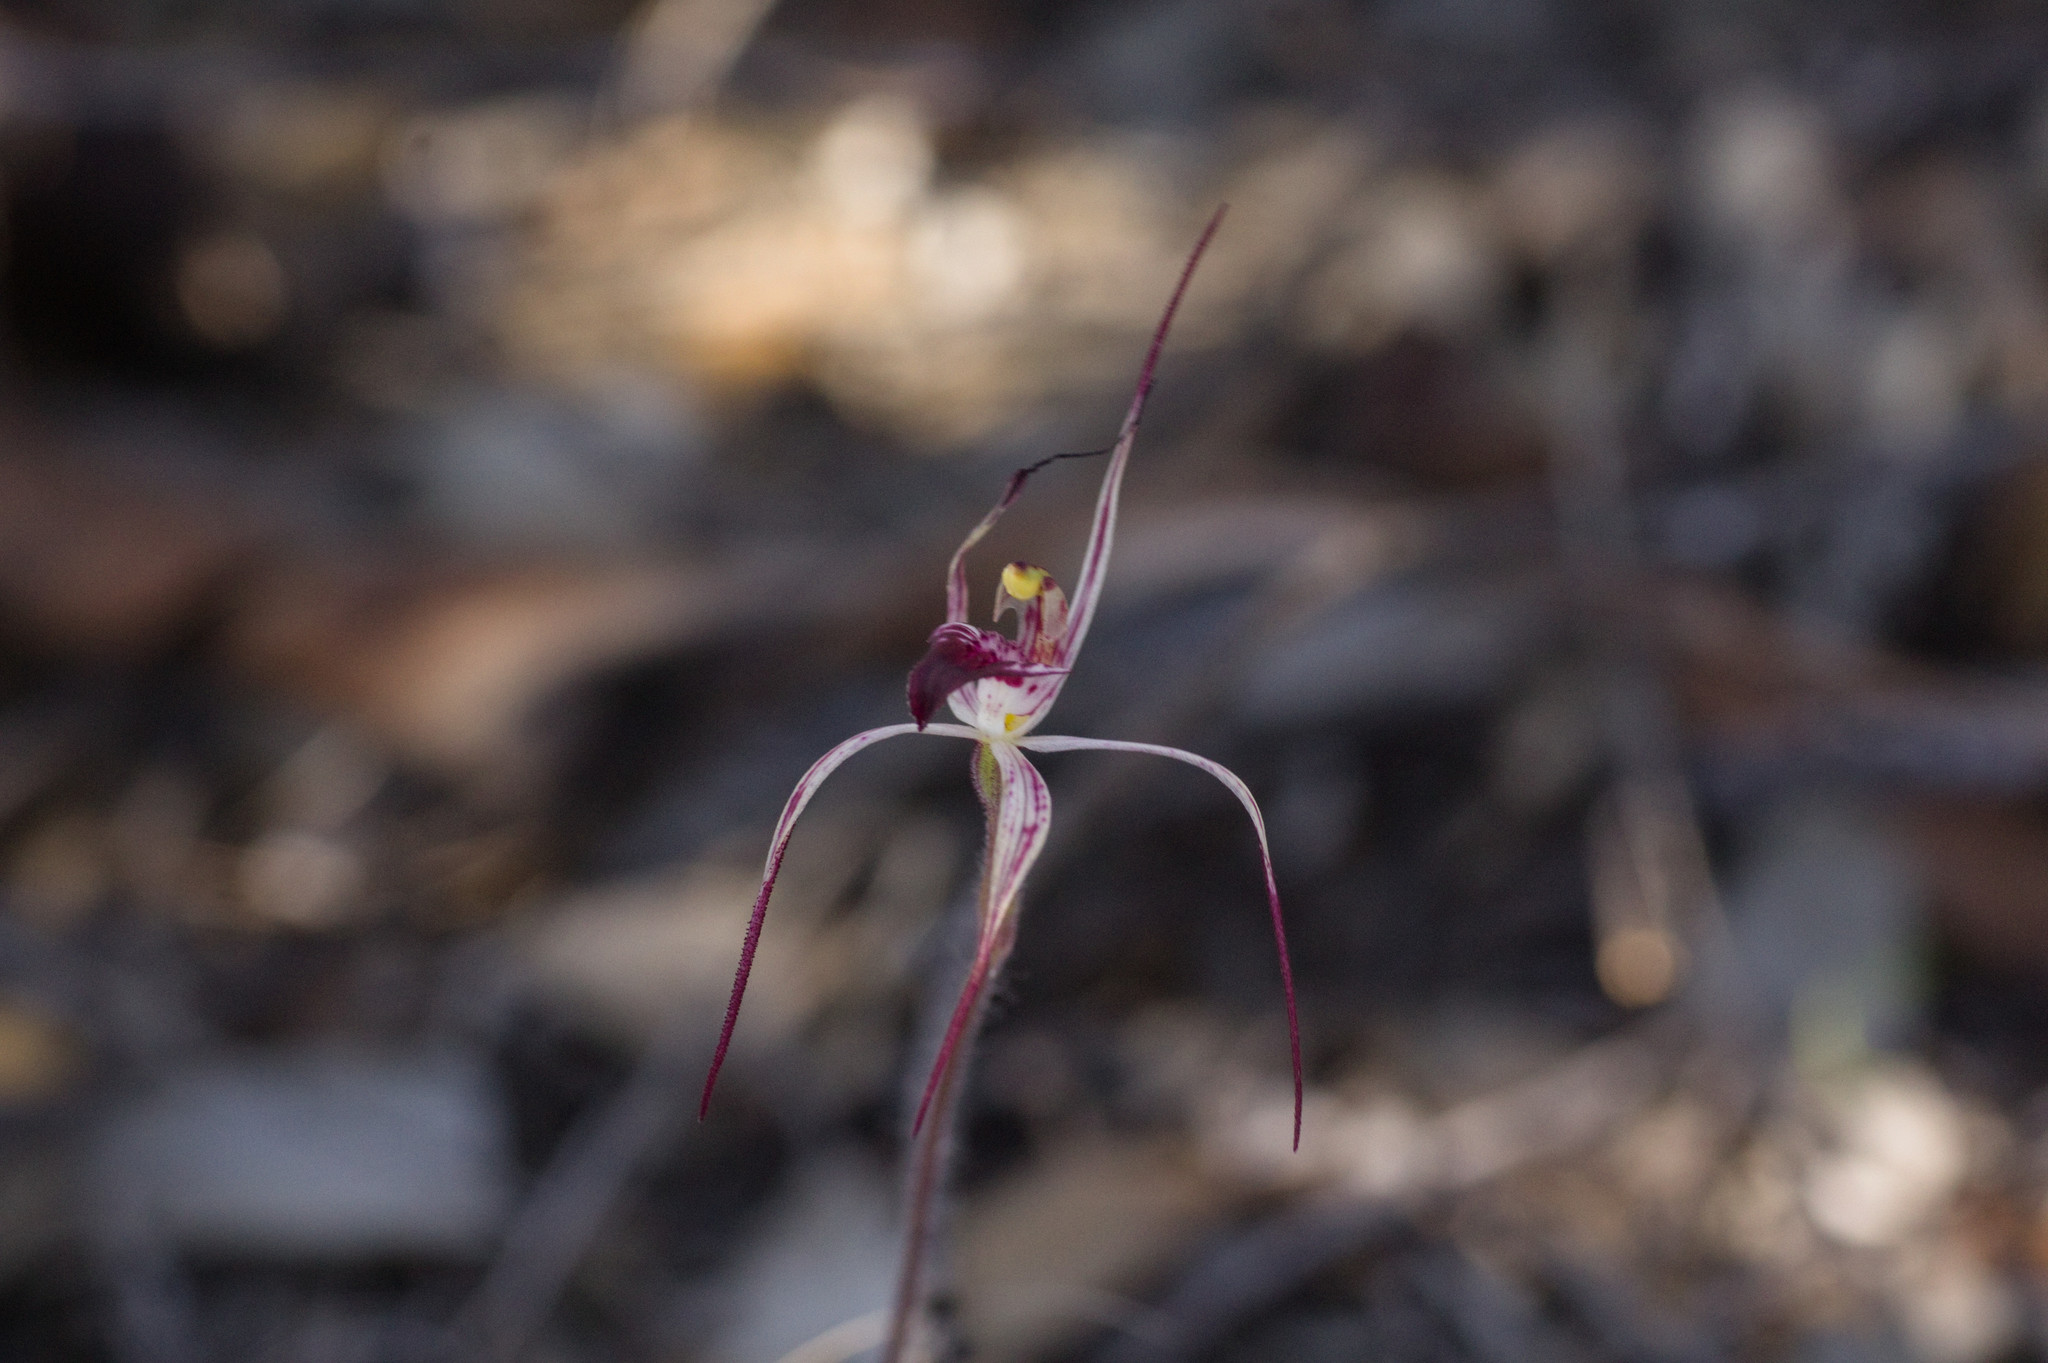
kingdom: Plantae
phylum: Tracheophyta
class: Liliopsida
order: Asparagales
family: Orchidaceae
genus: Caladenia
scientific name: Caladenia radialis
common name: Drooping spider orchid
